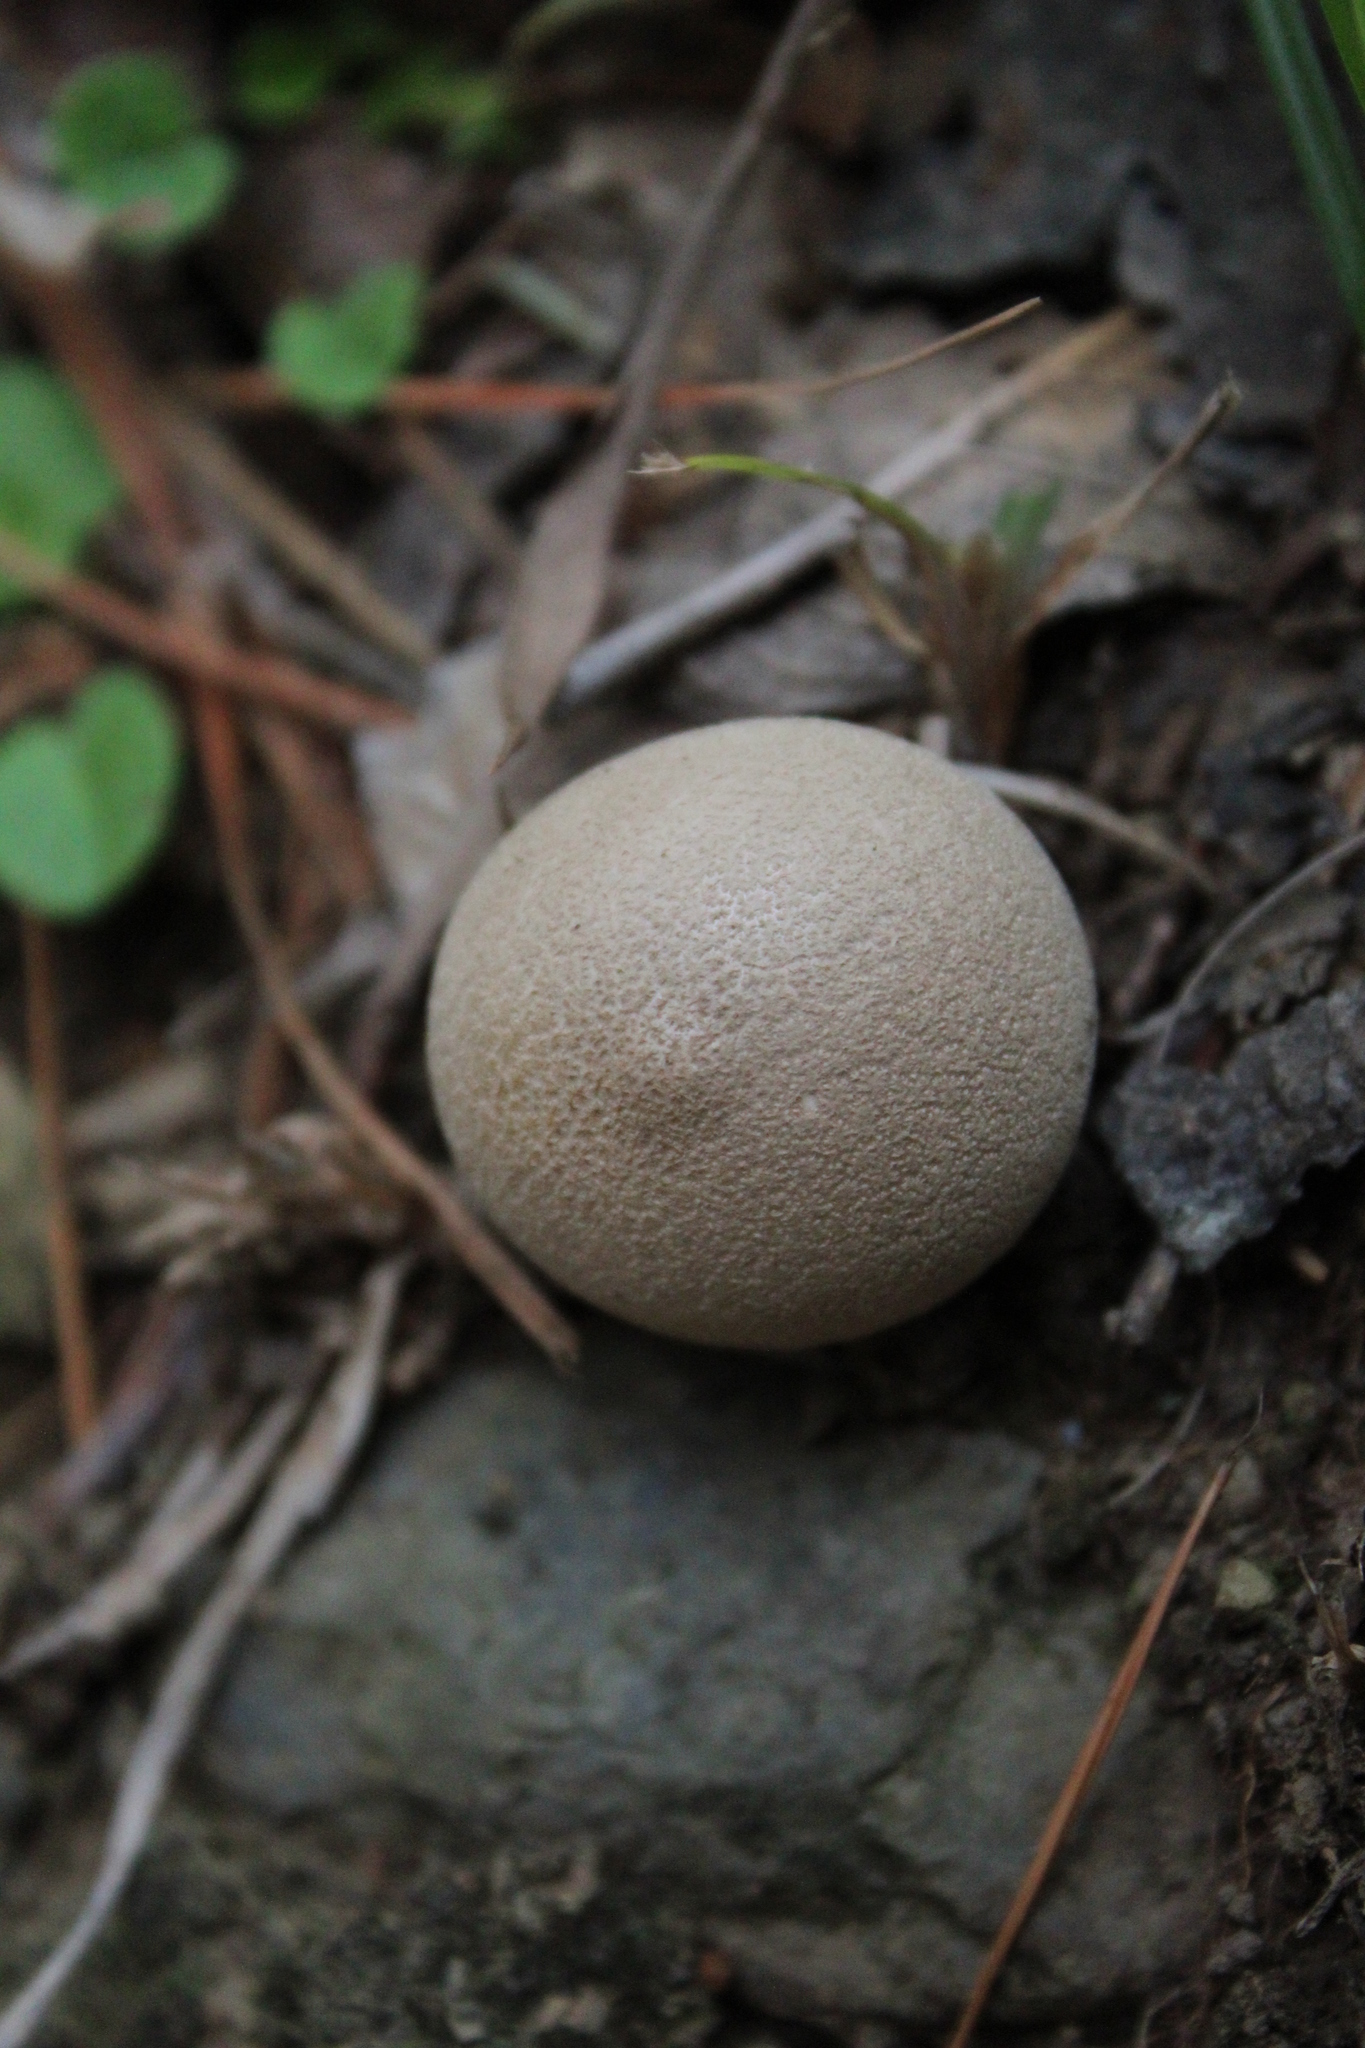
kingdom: Fungi
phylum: Basidiomycota
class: Agaricomycetes
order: Agaricales
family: Lycoperdaceae
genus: Apioperdon
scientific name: Apioperdon pyriforme
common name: Pear-shaped puffball
